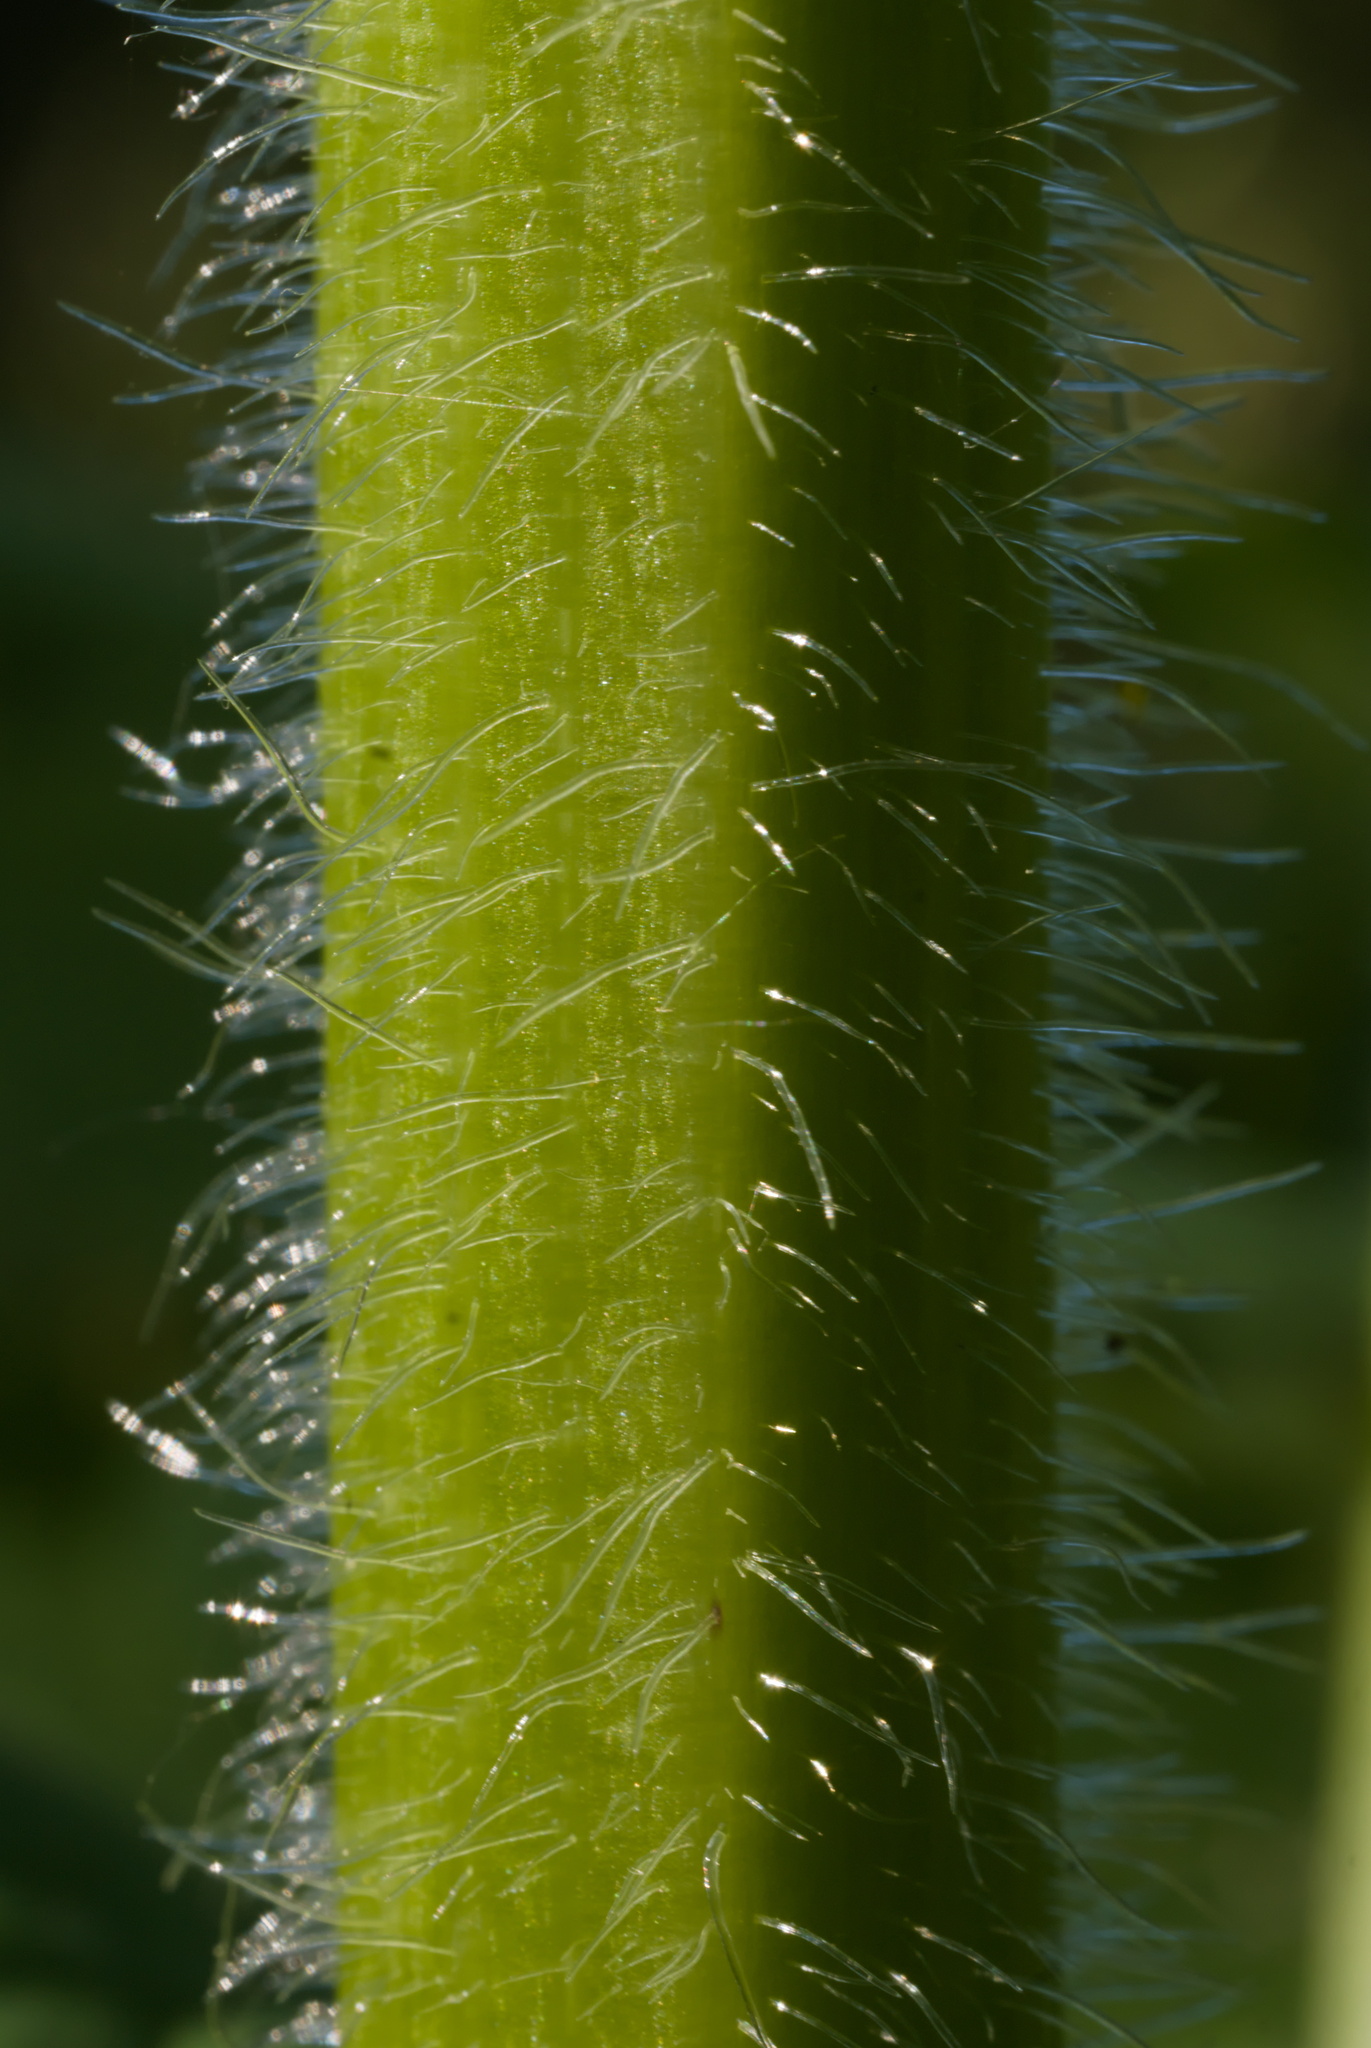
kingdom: Plantae
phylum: Tracheophyta
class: Magnoliopsida
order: Apiales
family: Apiaceae
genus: Heracleum
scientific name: Heracleum maximum
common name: American cow parsnip
